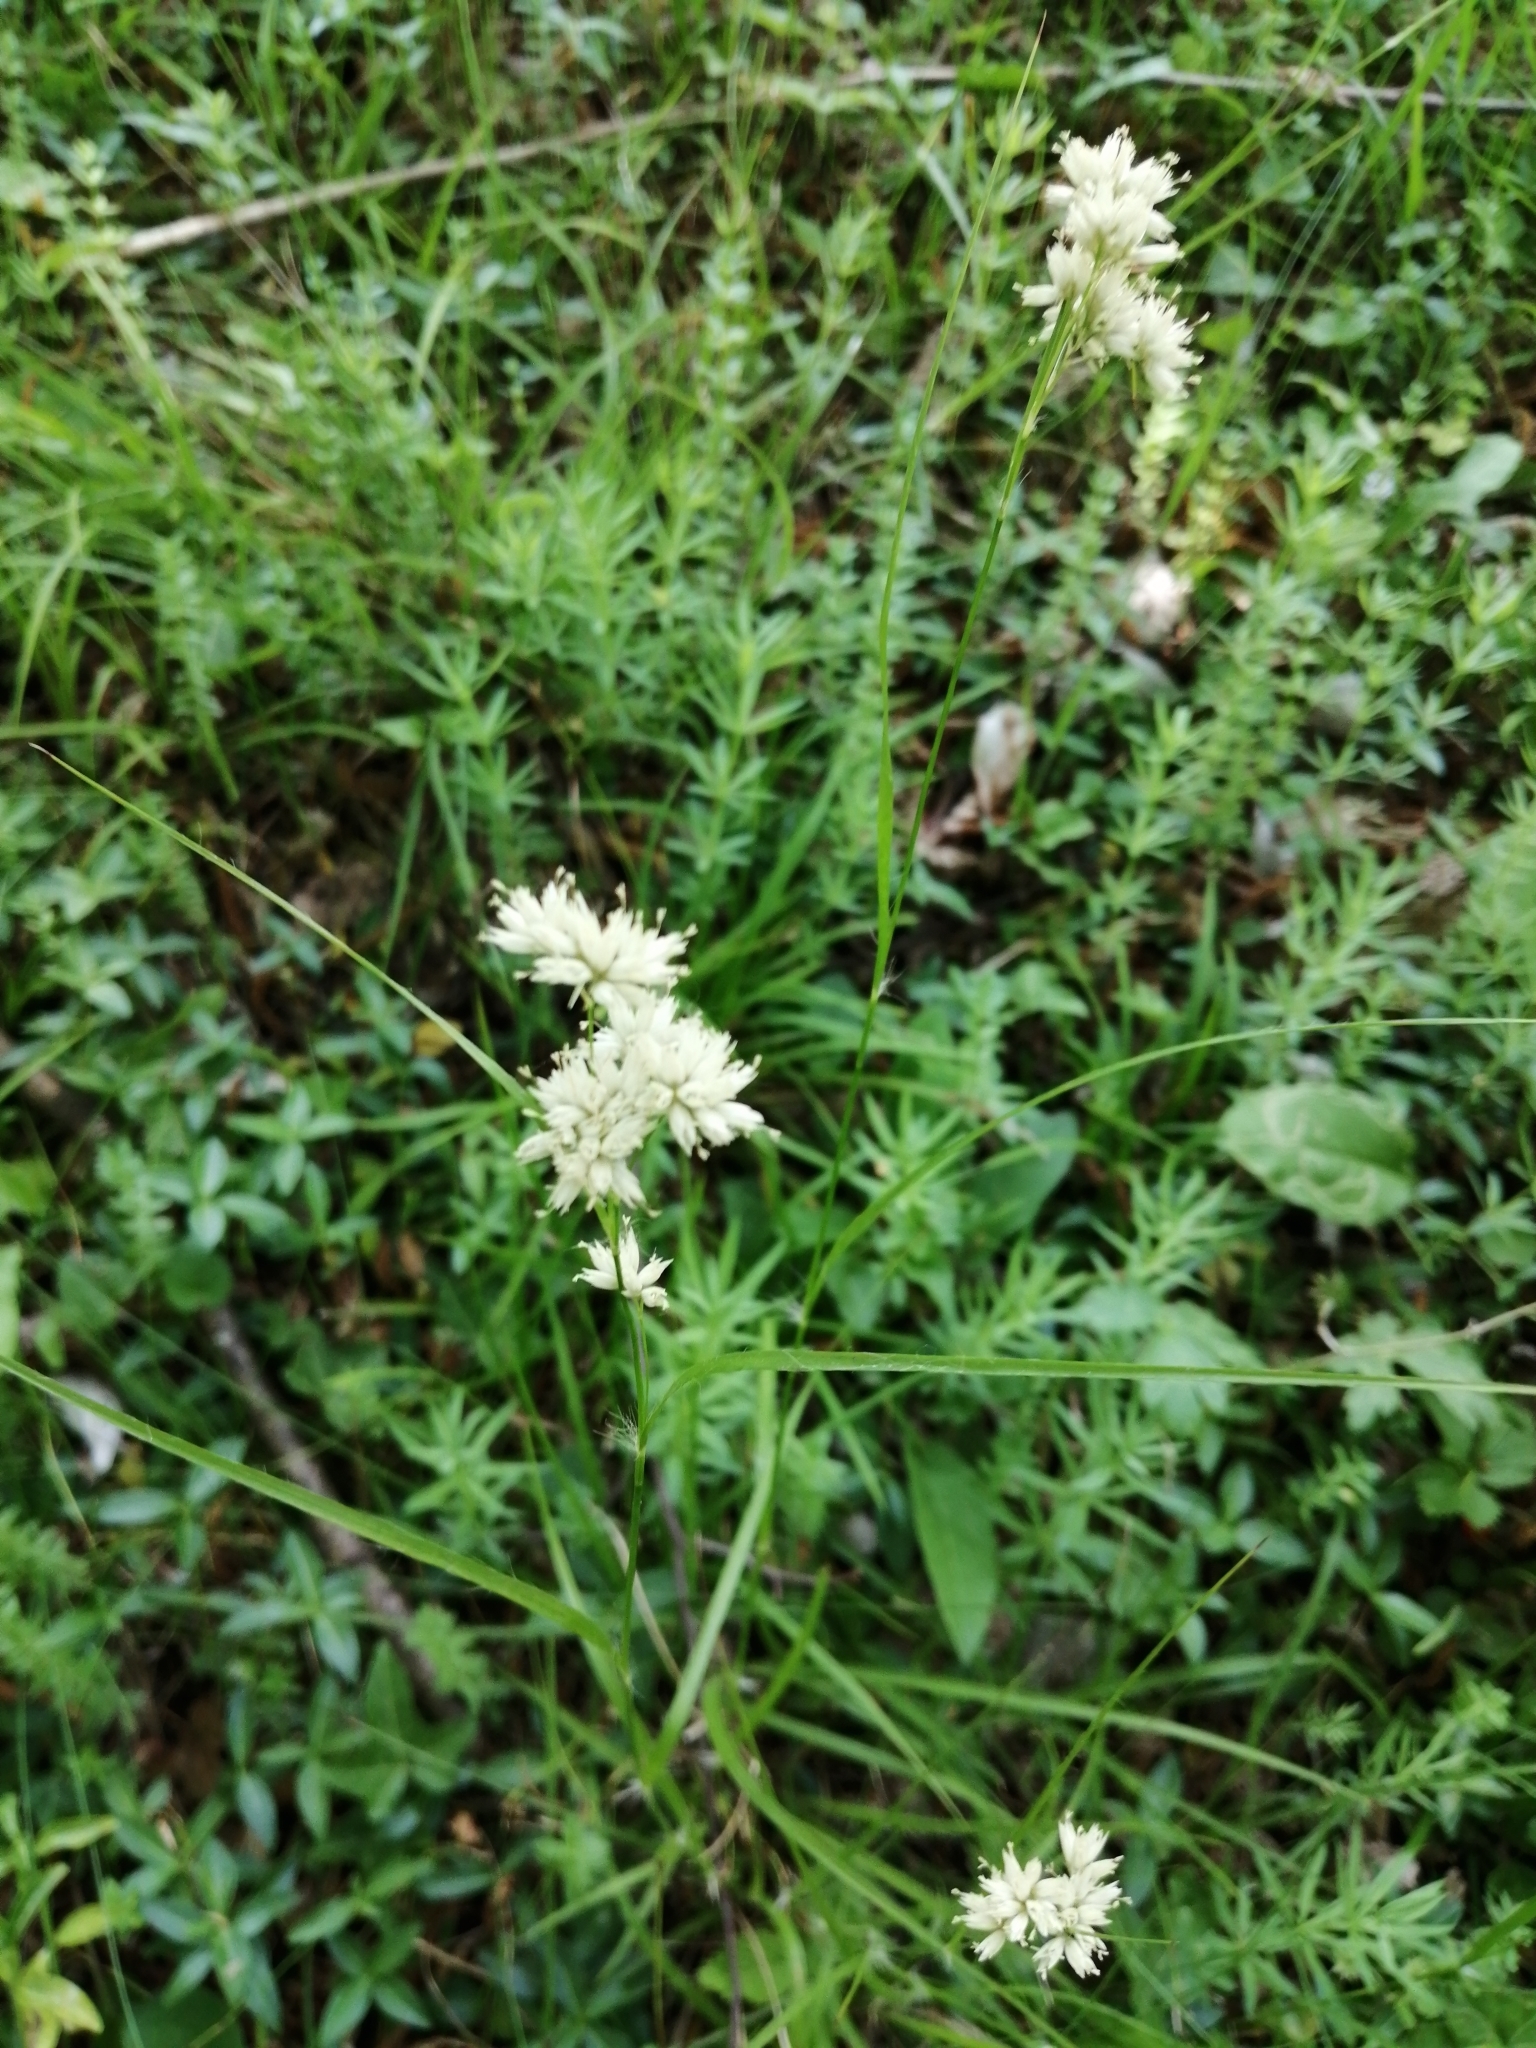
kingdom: Plantae
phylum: Tracheophyta
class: Liliopsida
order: Poales
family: Juncaceae
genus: Luzula
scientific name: Luzula nivea
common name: Snow-white wood-rush
